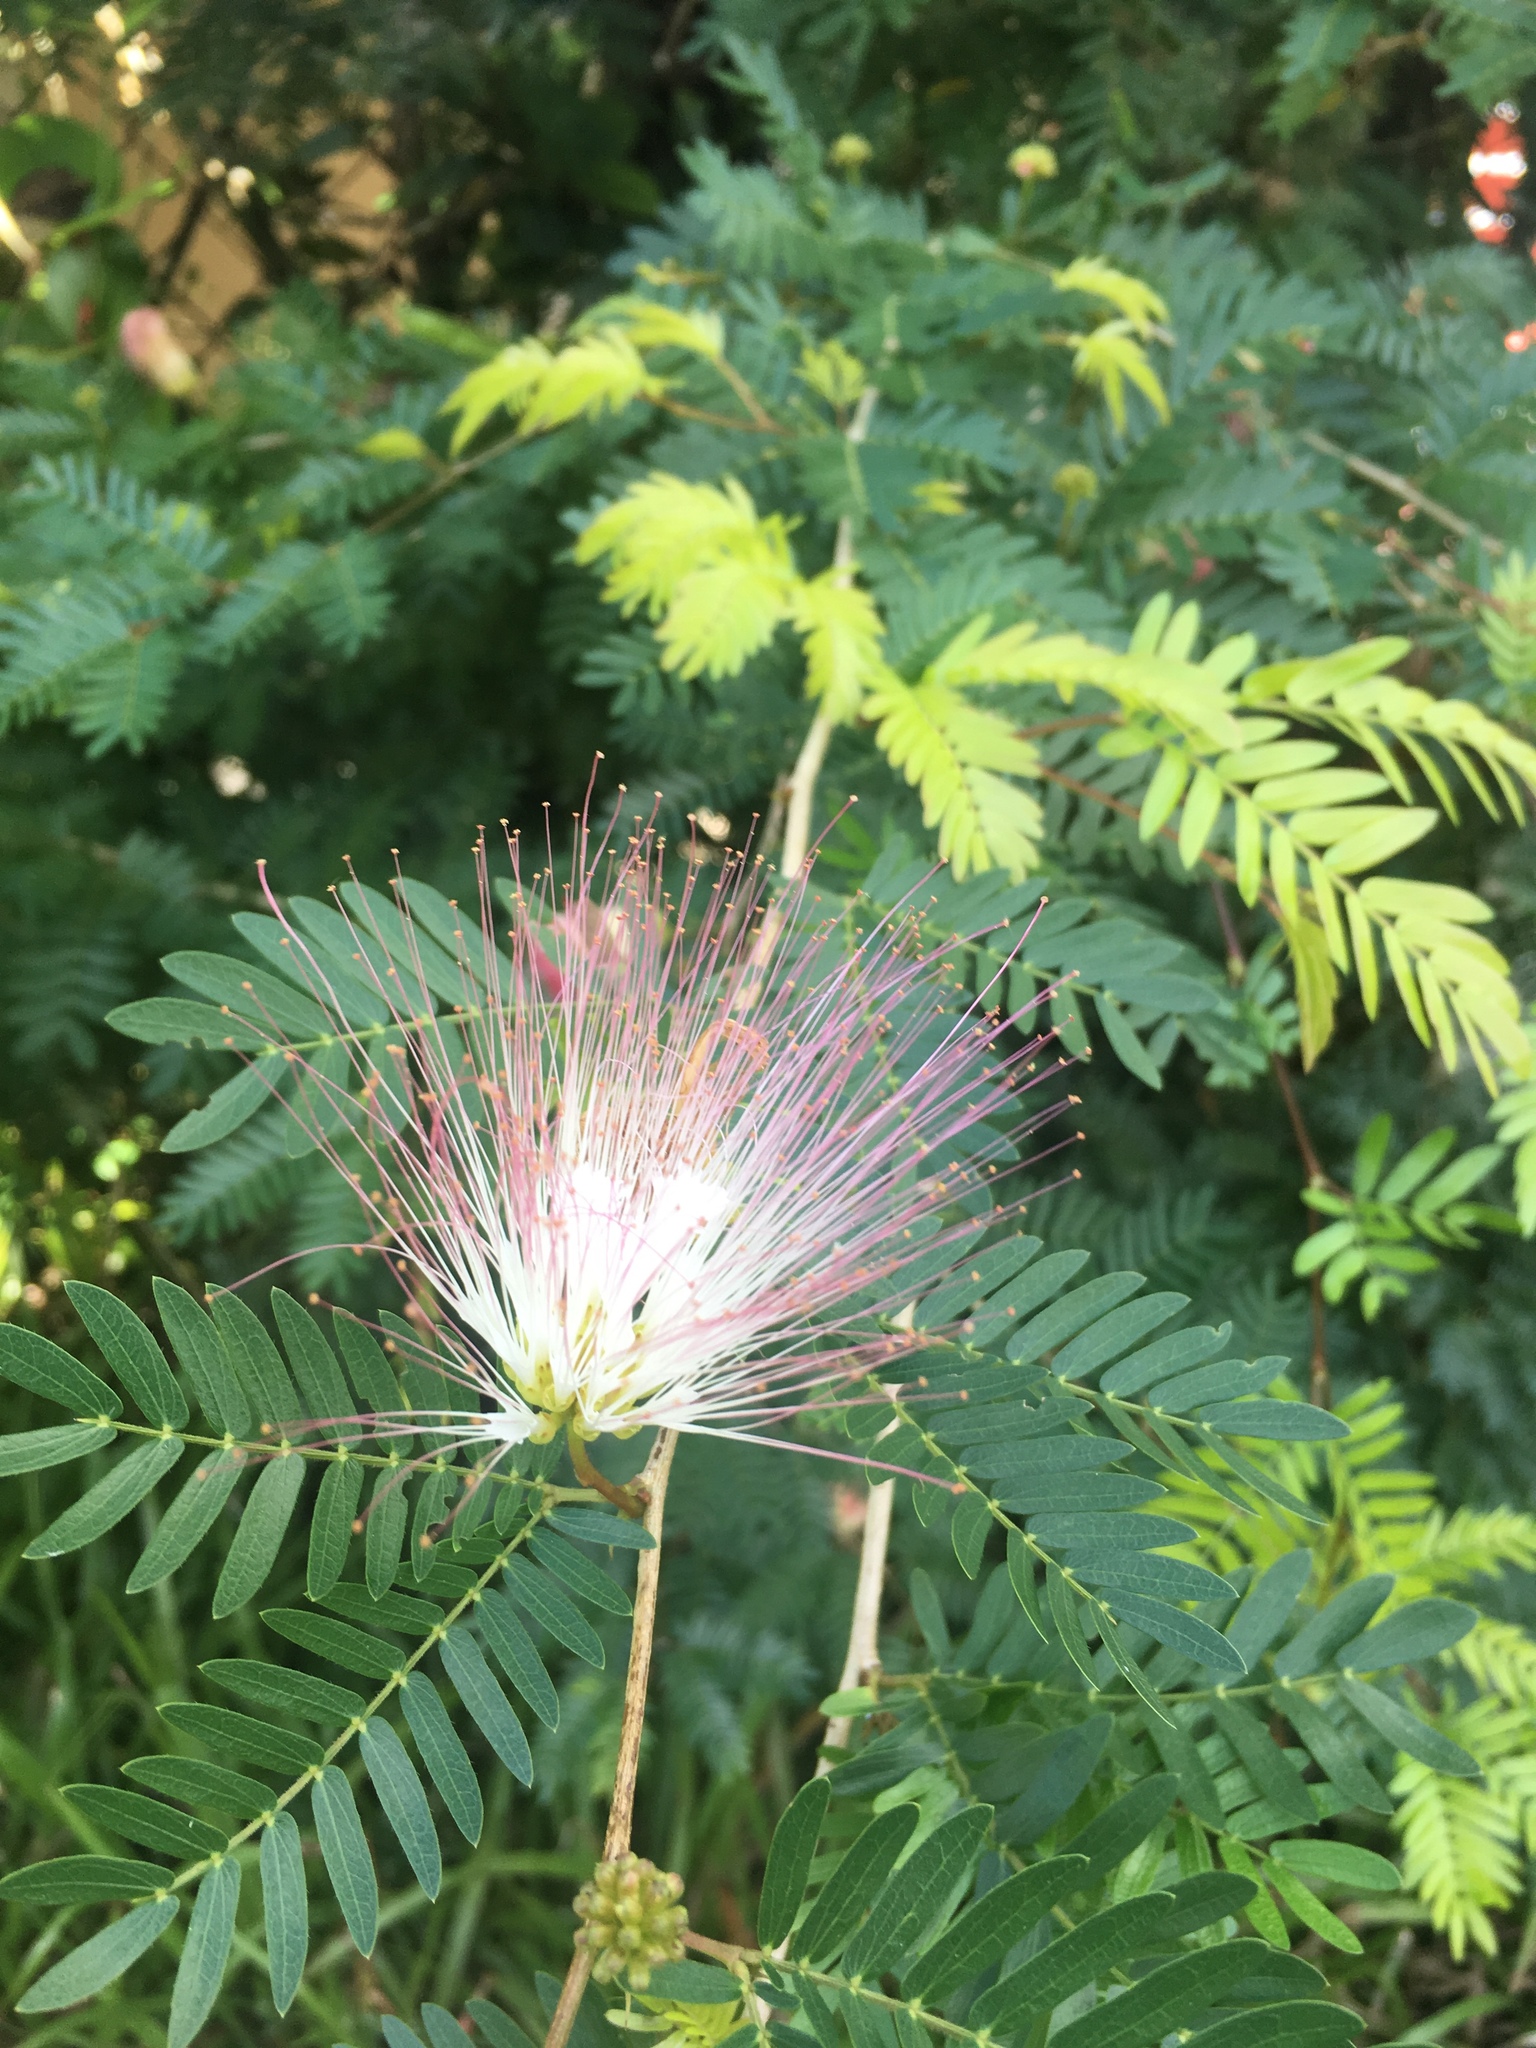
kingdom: Plantae
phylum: Tracheophyta
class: Magnoliopsida
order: Fabales
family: Fabaceae
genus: Calliandra
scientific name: Calliandra surinamensis
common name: Pink powder puff
